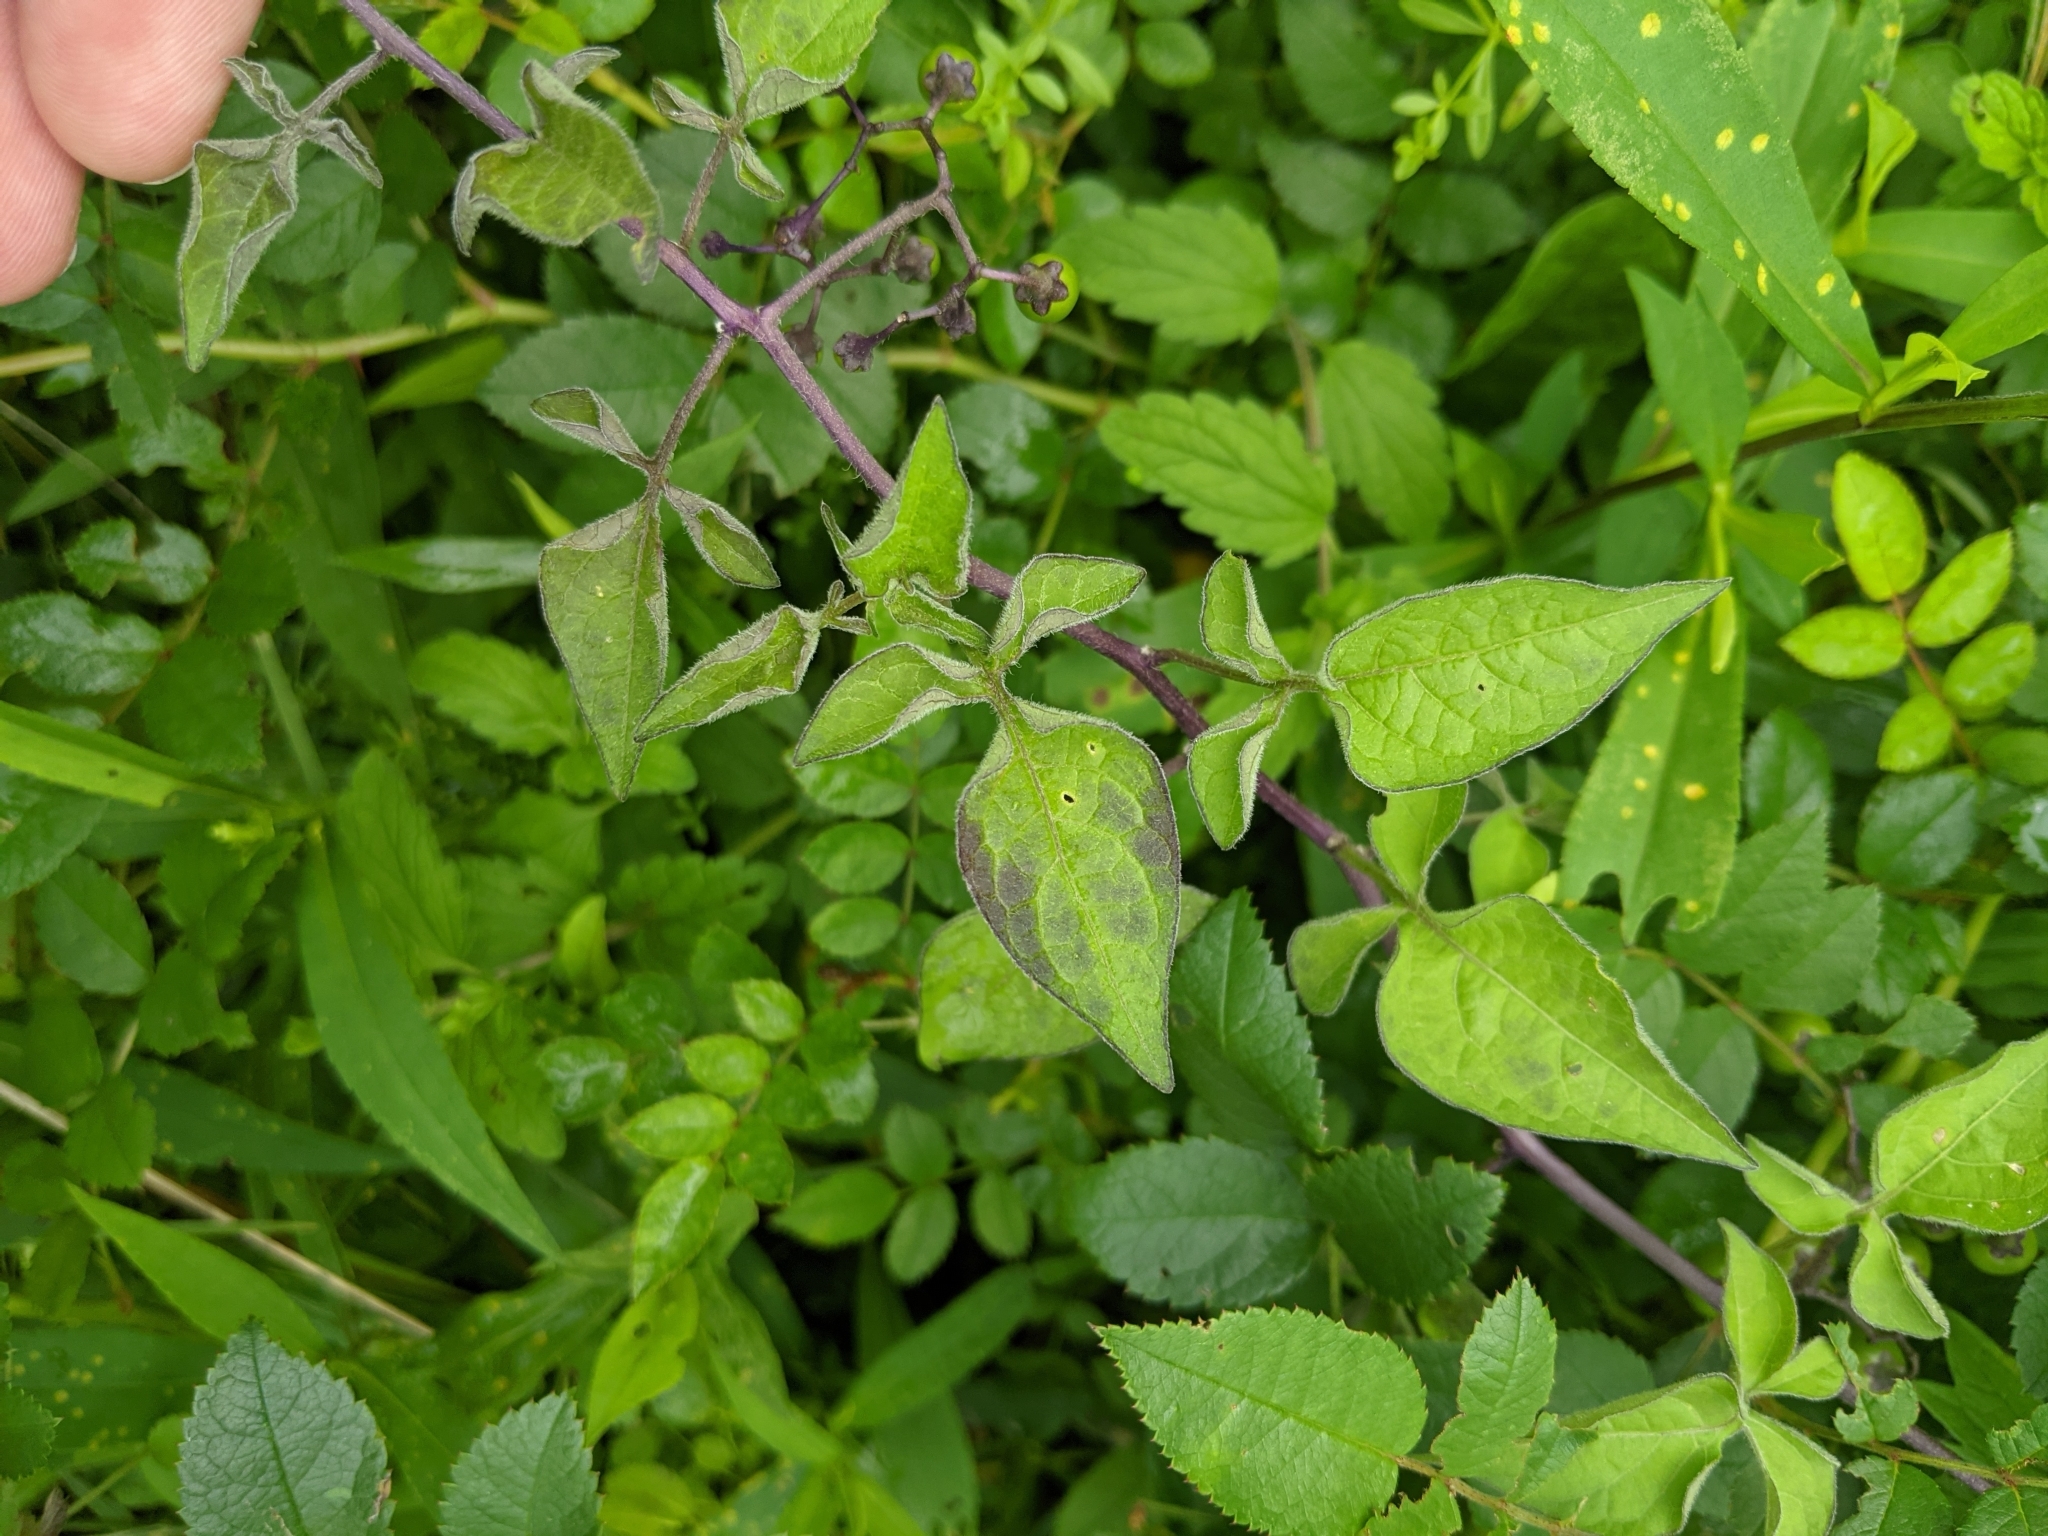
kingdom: Plantae
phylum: Tracheophyta
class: Magnoliopsida
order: Solanales
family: Solanaceae
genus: Solanum
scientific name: Solanum dulcamara
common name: Climbing nightshade
